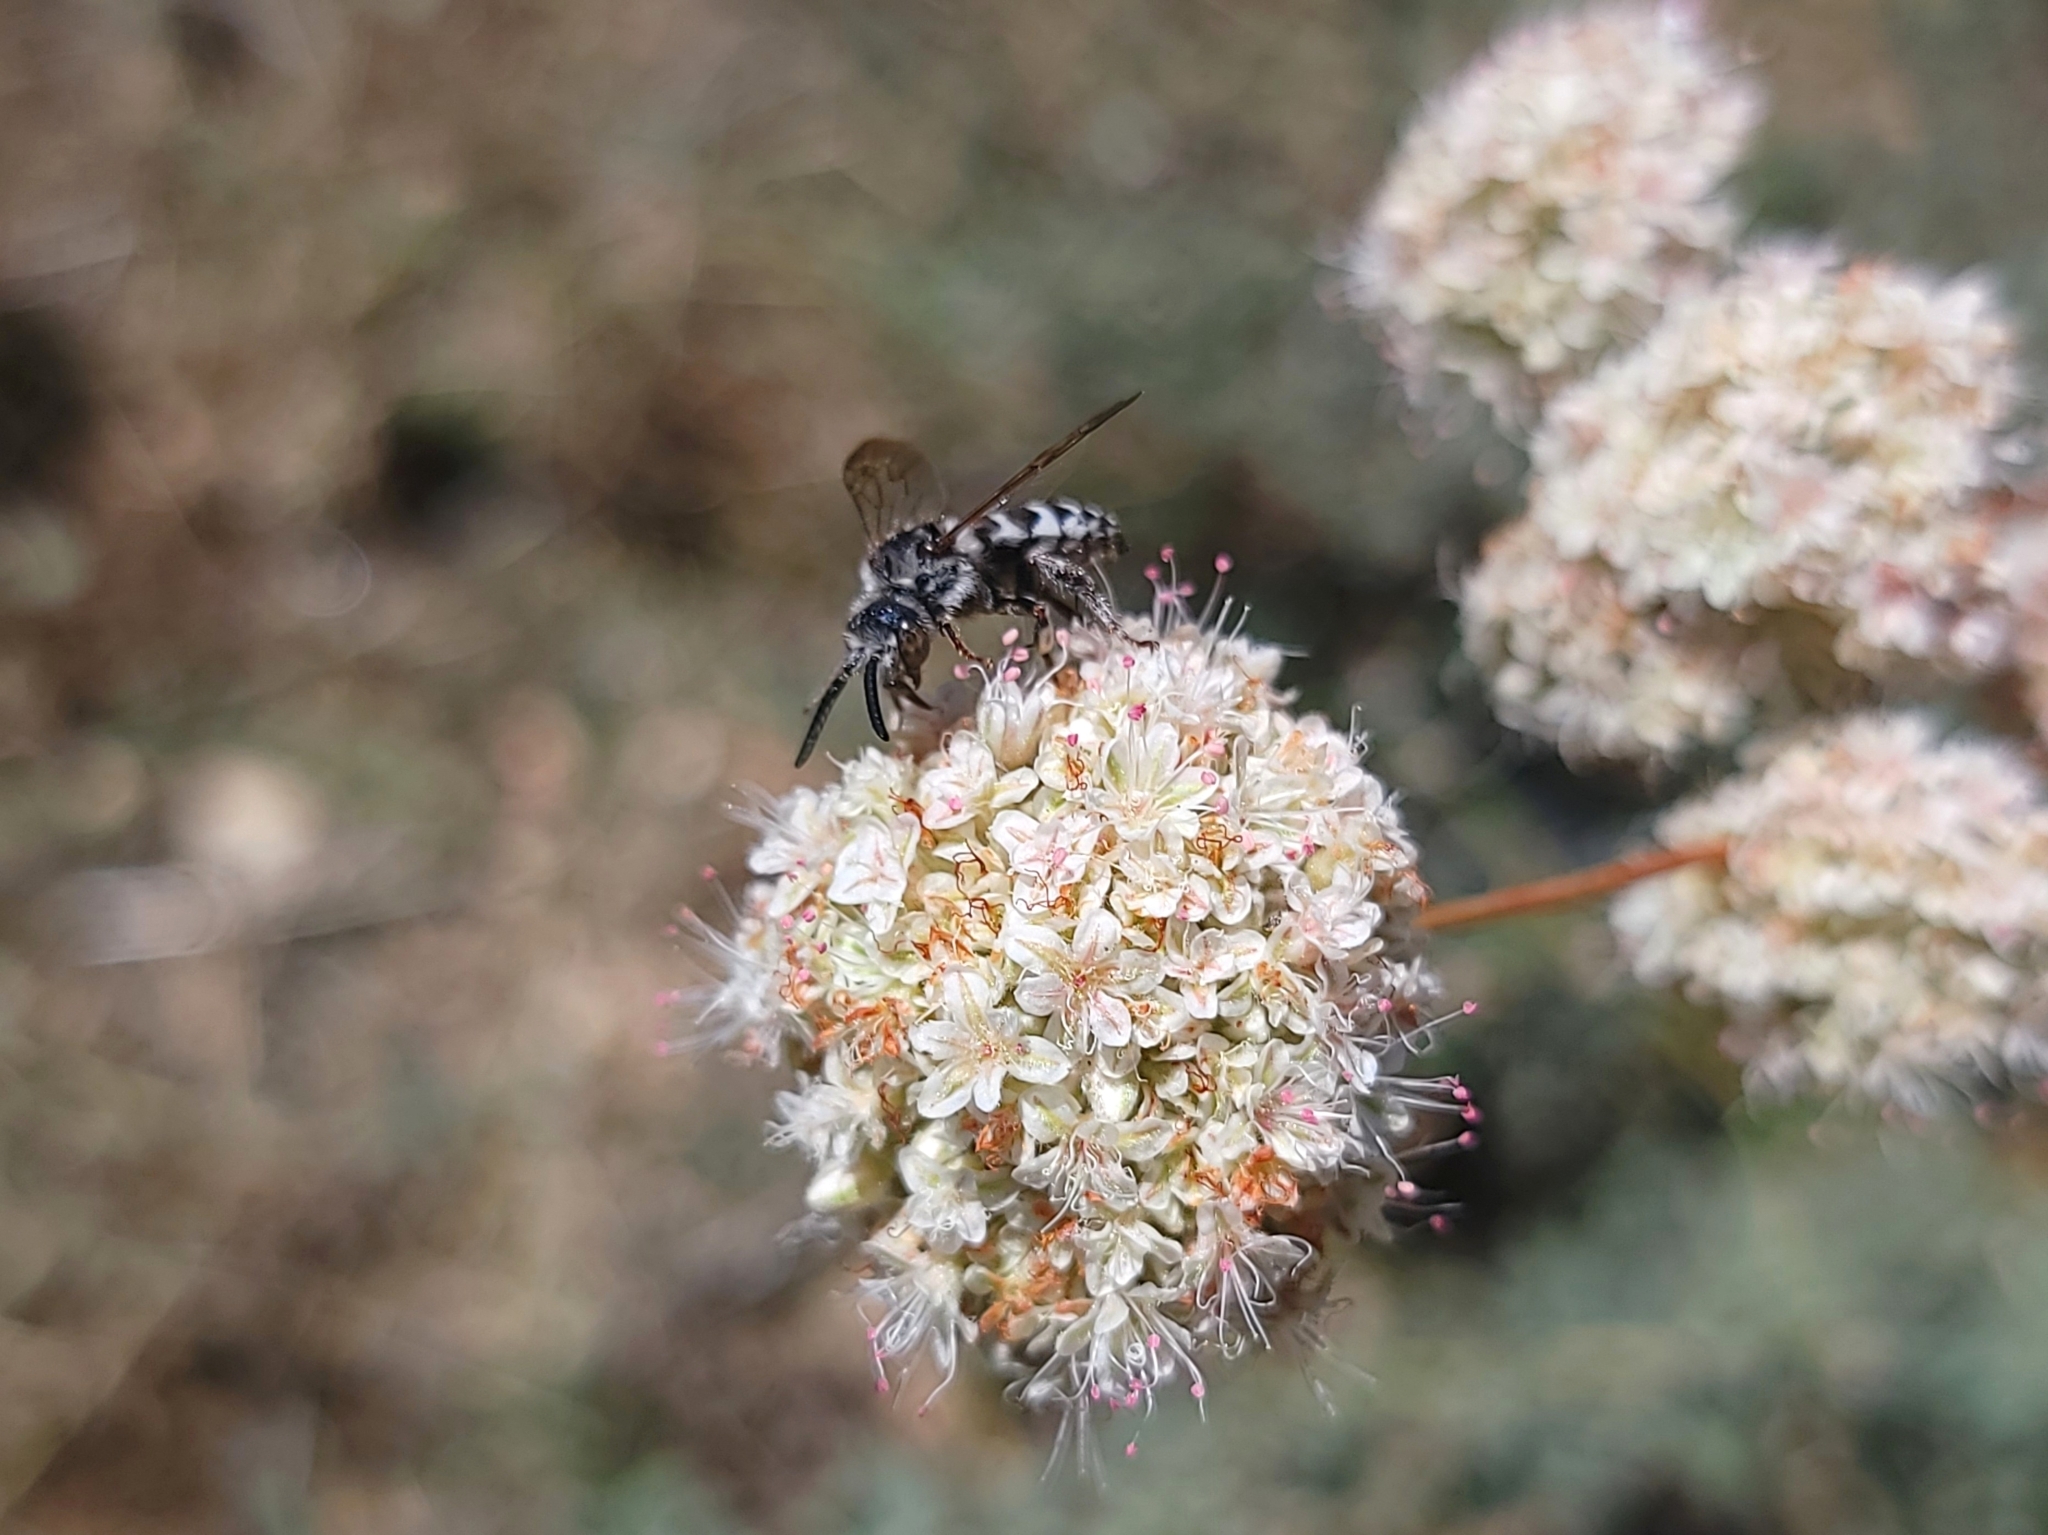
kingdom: Animalia
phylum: Arthropoda
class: Insecta
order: Hymenoptera
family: Apidae
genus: Brachymelecta
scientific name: Brachymelecta californica
